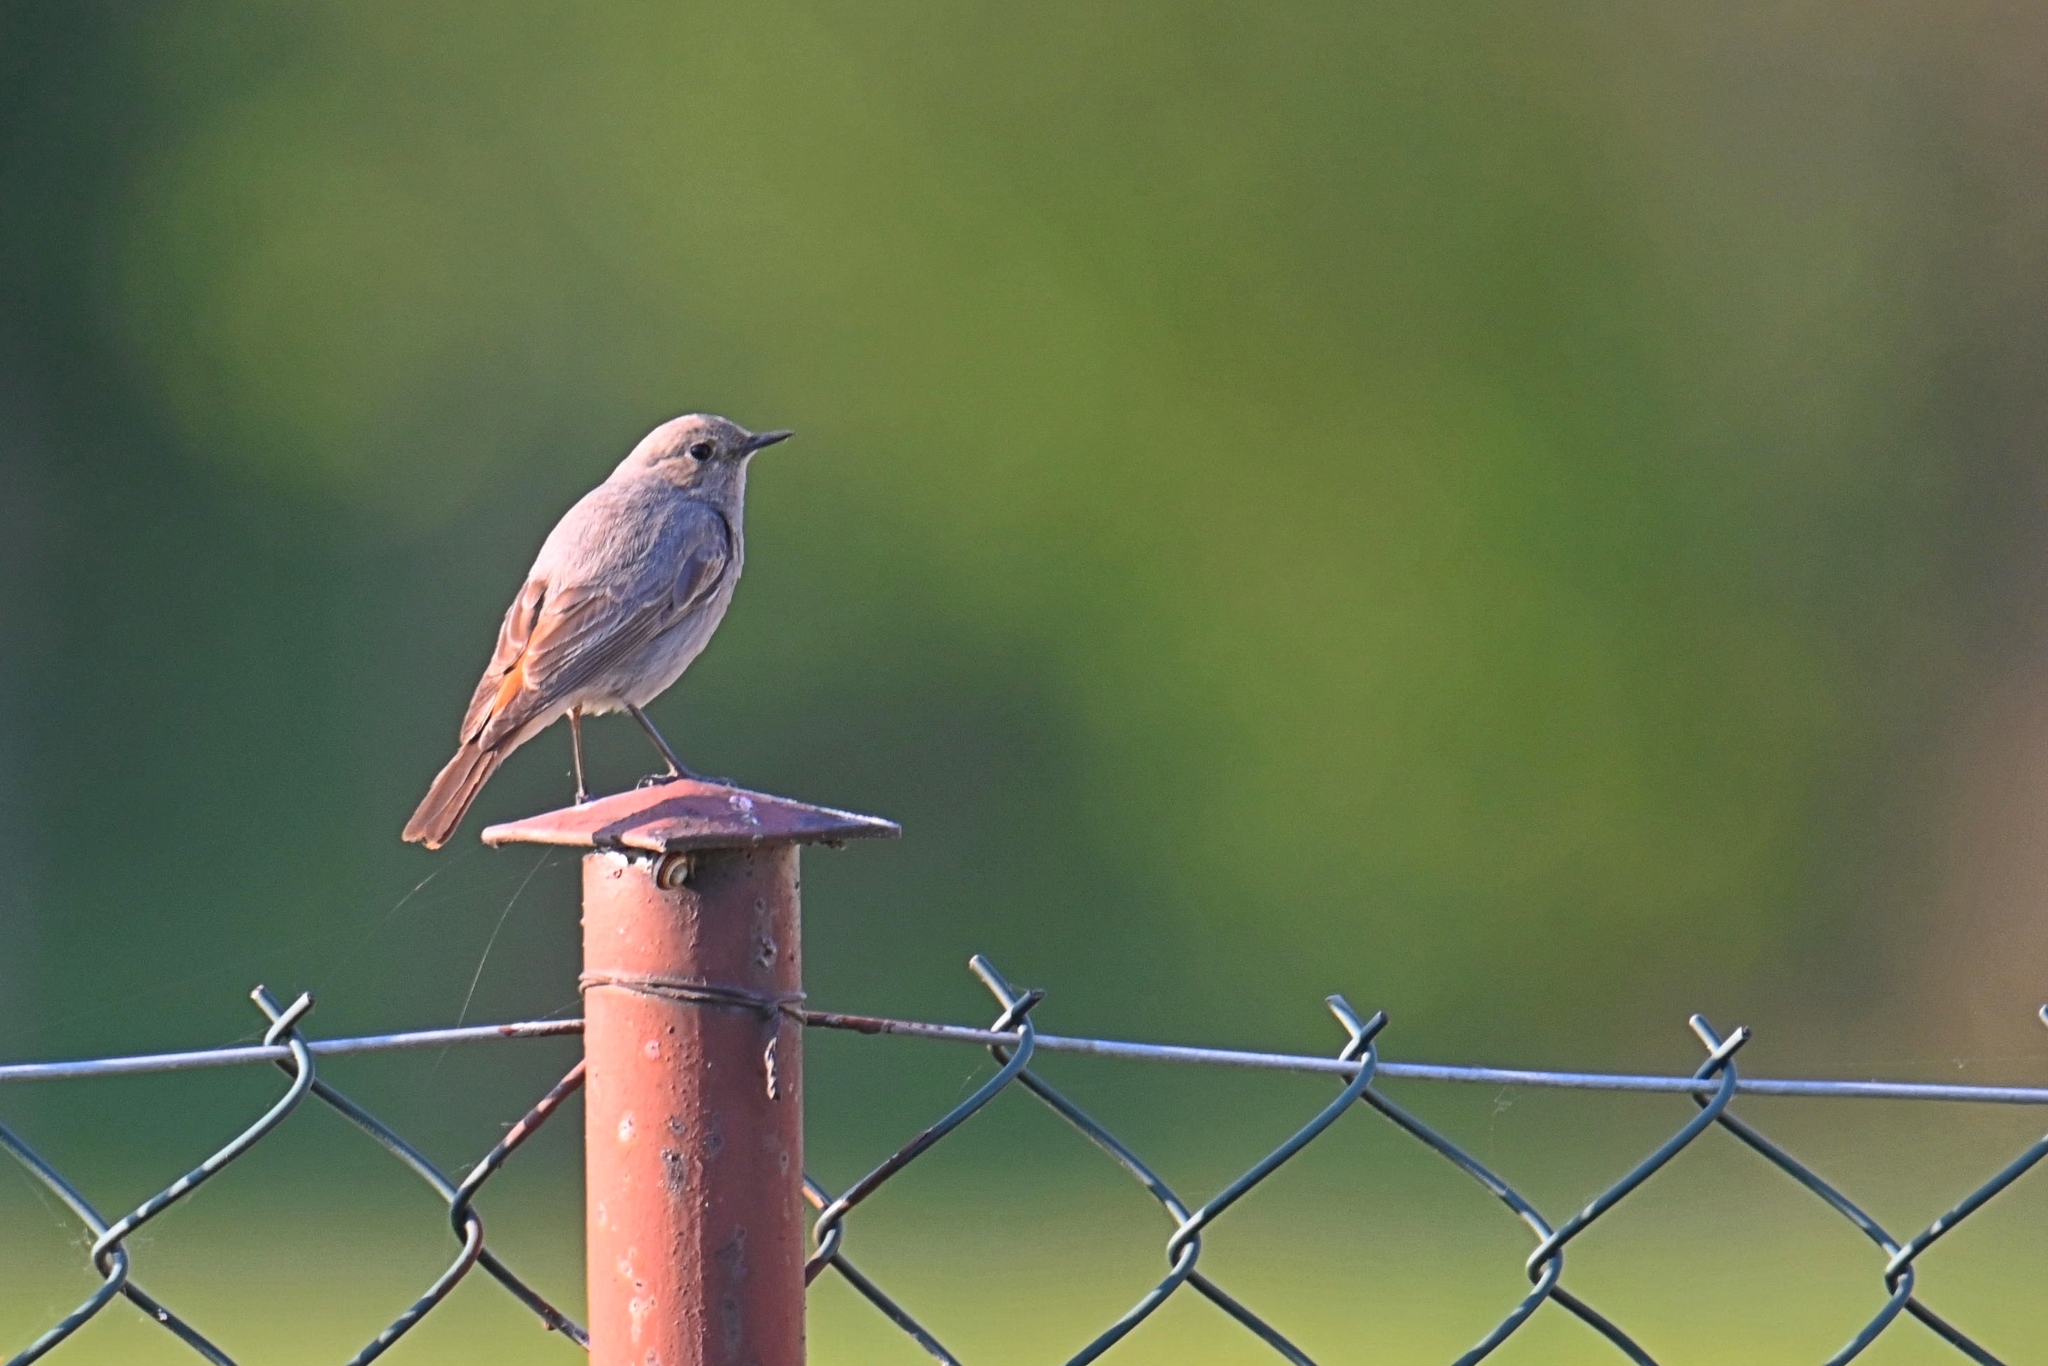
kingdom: Animalia
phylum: Chordata
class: Aves
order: Passeriformes
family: Muscicapidae
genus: Phoenicurus
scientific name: Phoenicurus ochruros
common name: Black redstart
